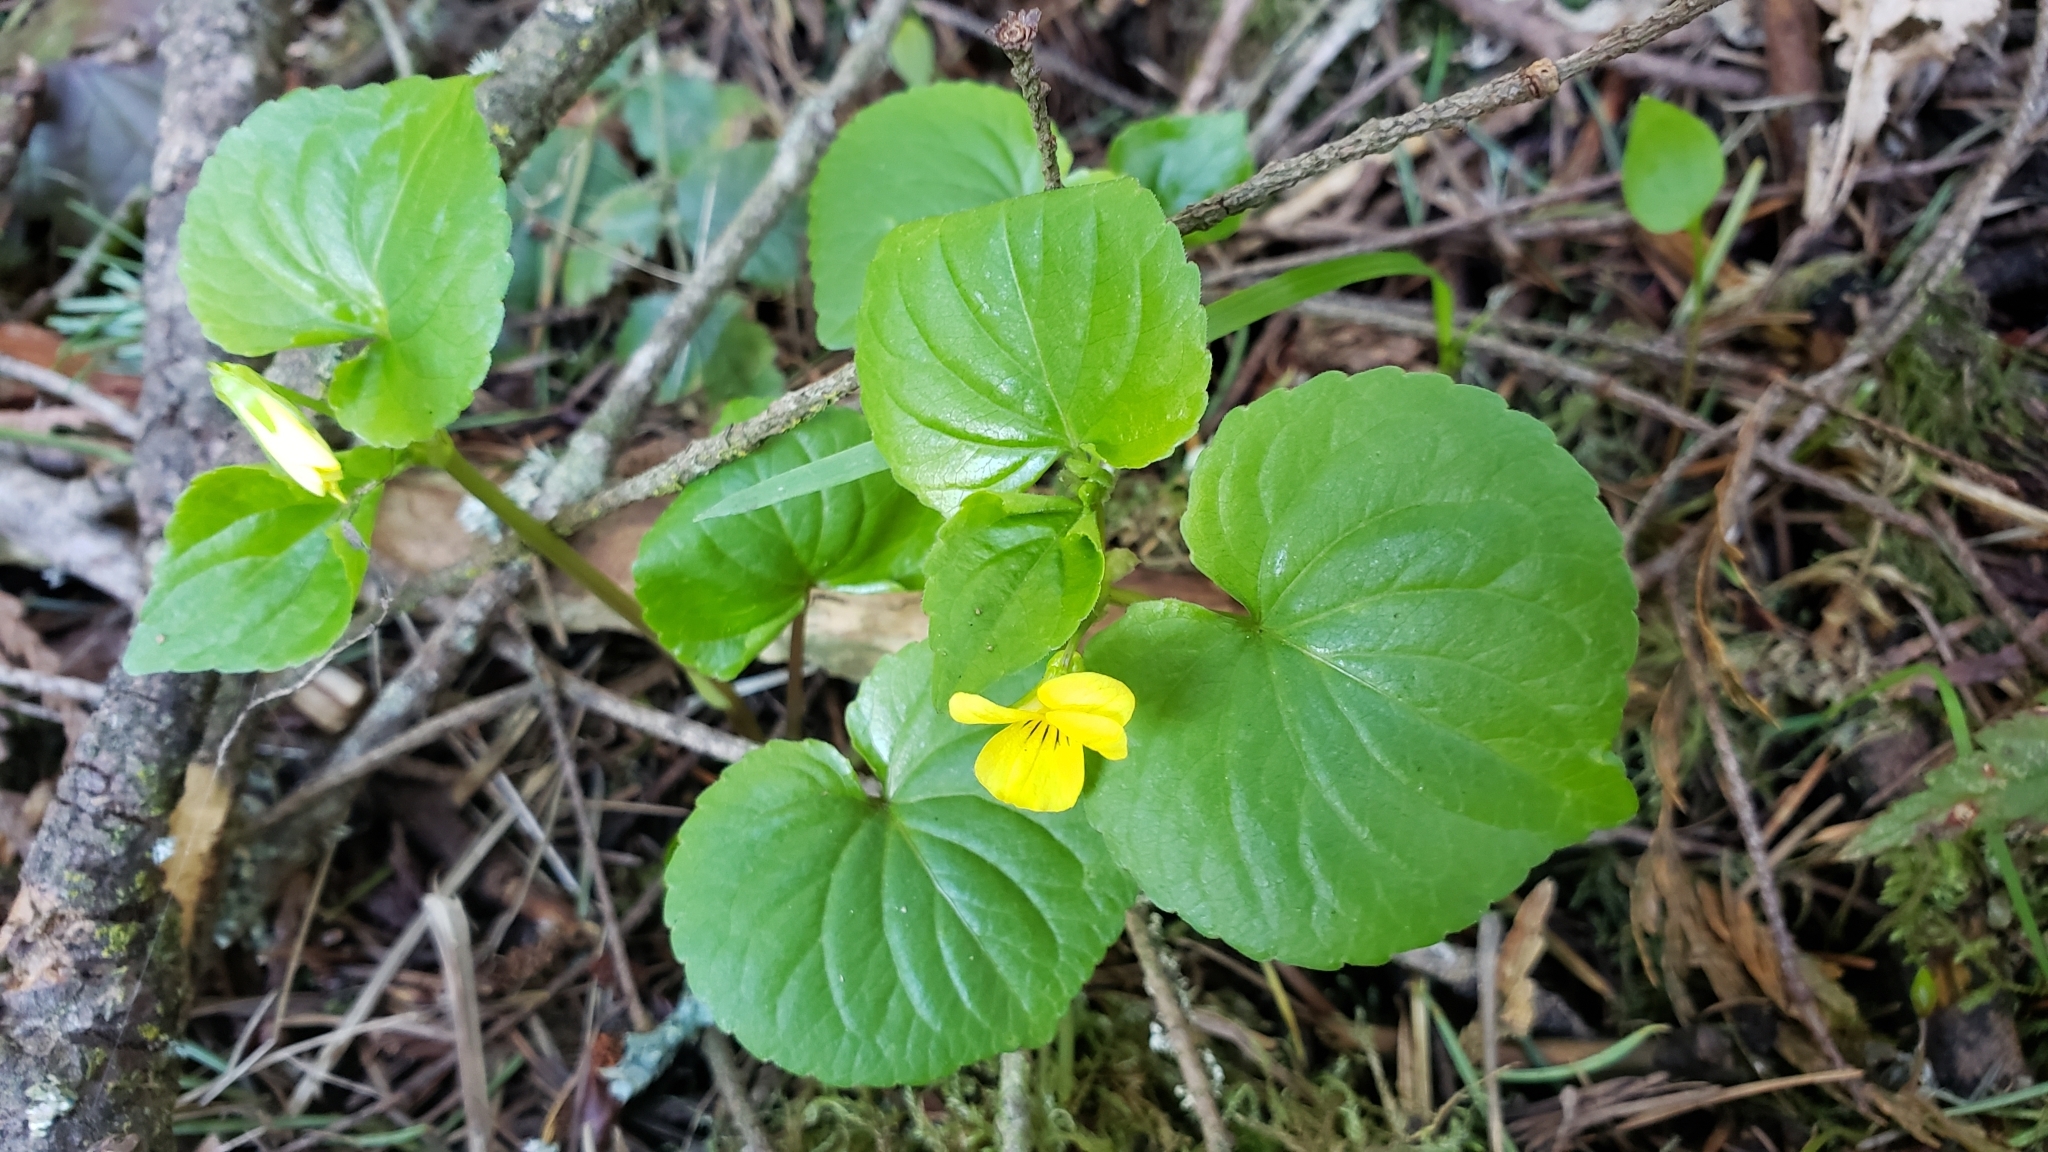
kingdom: Plantae
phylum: Tracheophyta
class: Magnoliopsida
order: Malpighiales
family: Violaceae
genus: Viola
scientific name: Viola glabella
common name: Stream violet
